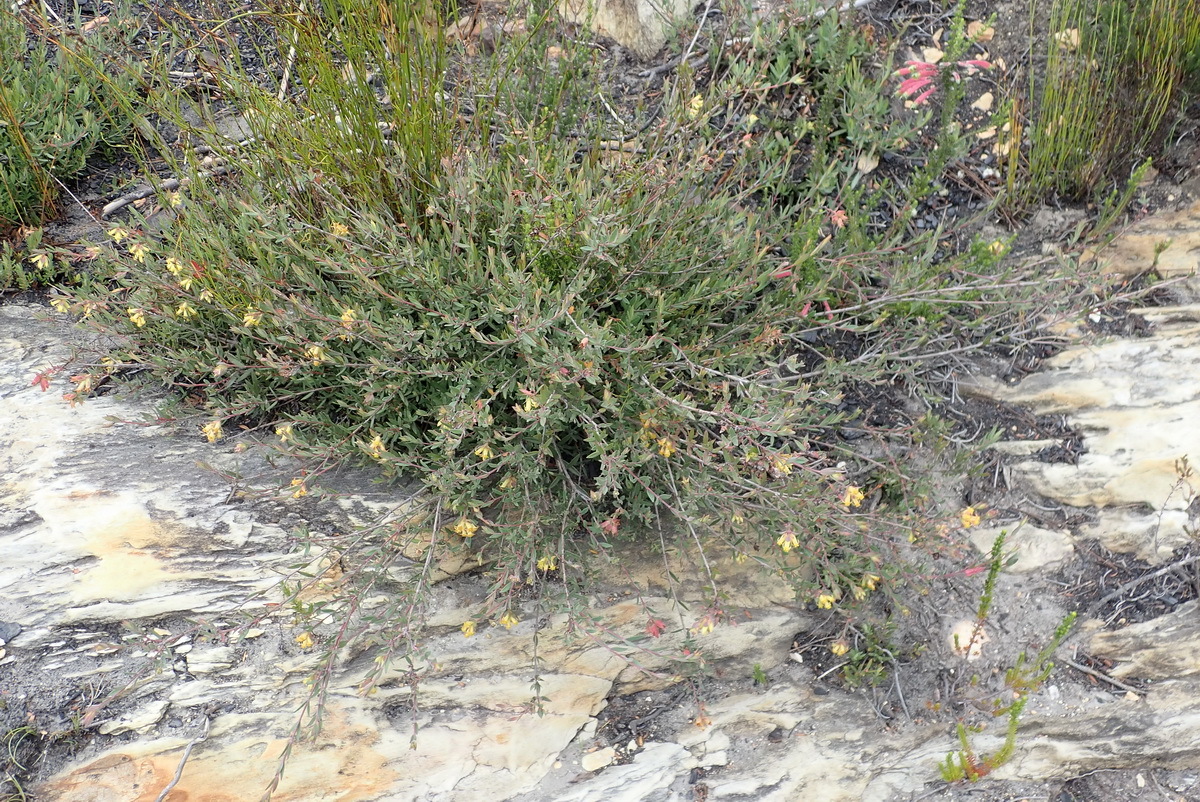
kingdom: Plantae
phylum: Tracheophyta
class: Magnoliopsida
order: Myrtales
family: Penaeaceae
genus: Penaea
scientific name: Penaea acutifolia
